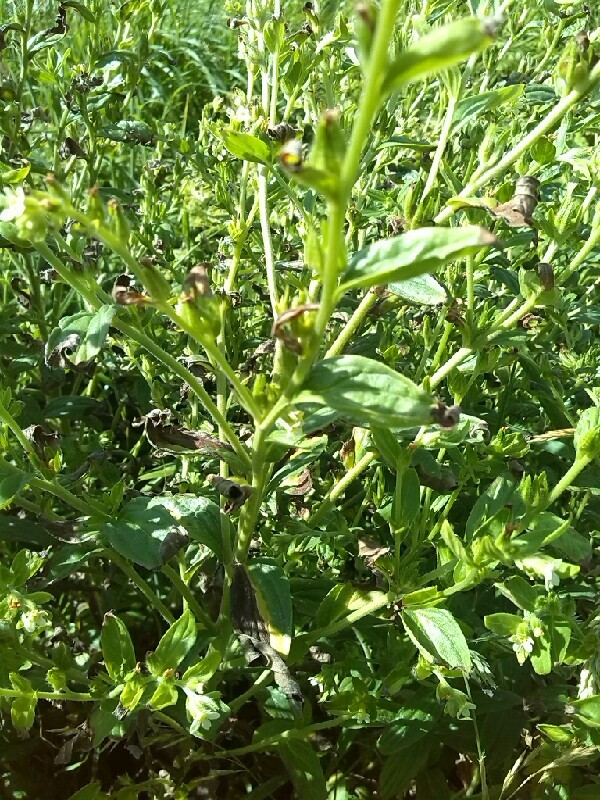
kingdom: Plantae
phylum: Tracheophyta
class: Magnoliopsida
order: Boraginales
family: Boraginaceae
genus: Lithospermum
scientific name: Lithospermum officinale
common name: Common gromwell
